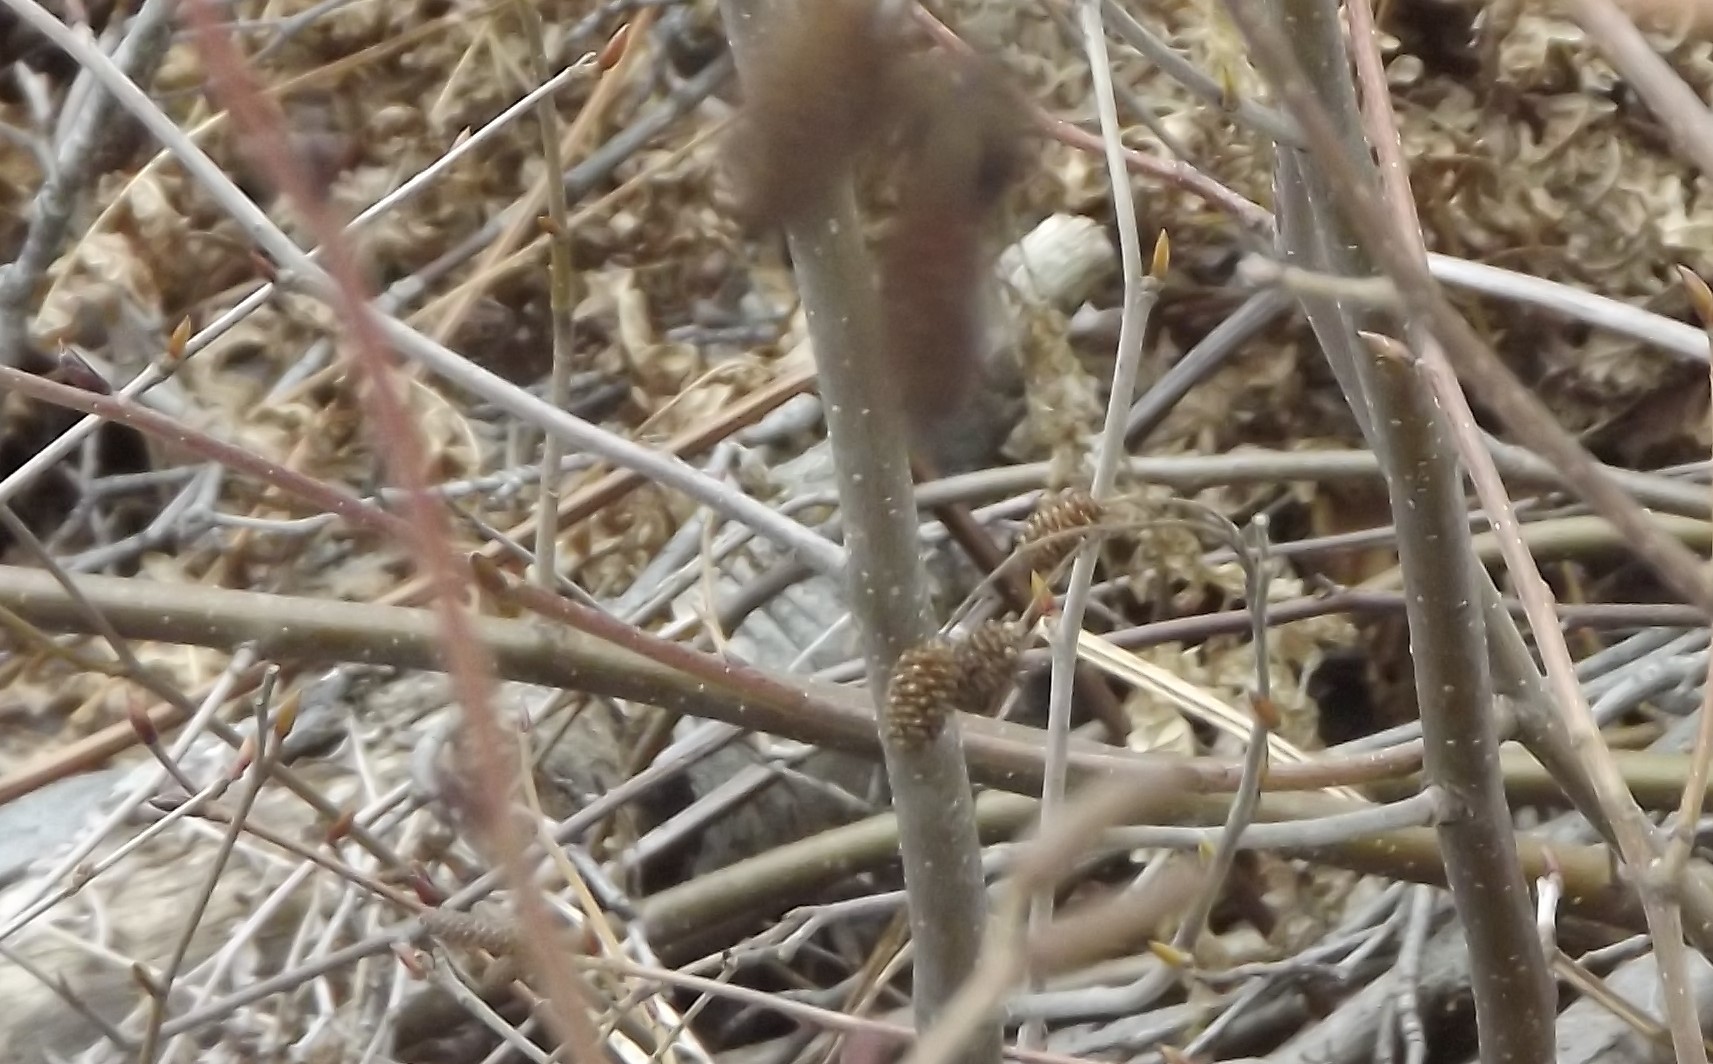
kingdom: Plantae
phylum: Tracheophyta
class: Magnoliopsida
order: Fagales
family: Betulaceae
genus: Alnus
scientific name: Alnus alnobetula
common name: Green alder
